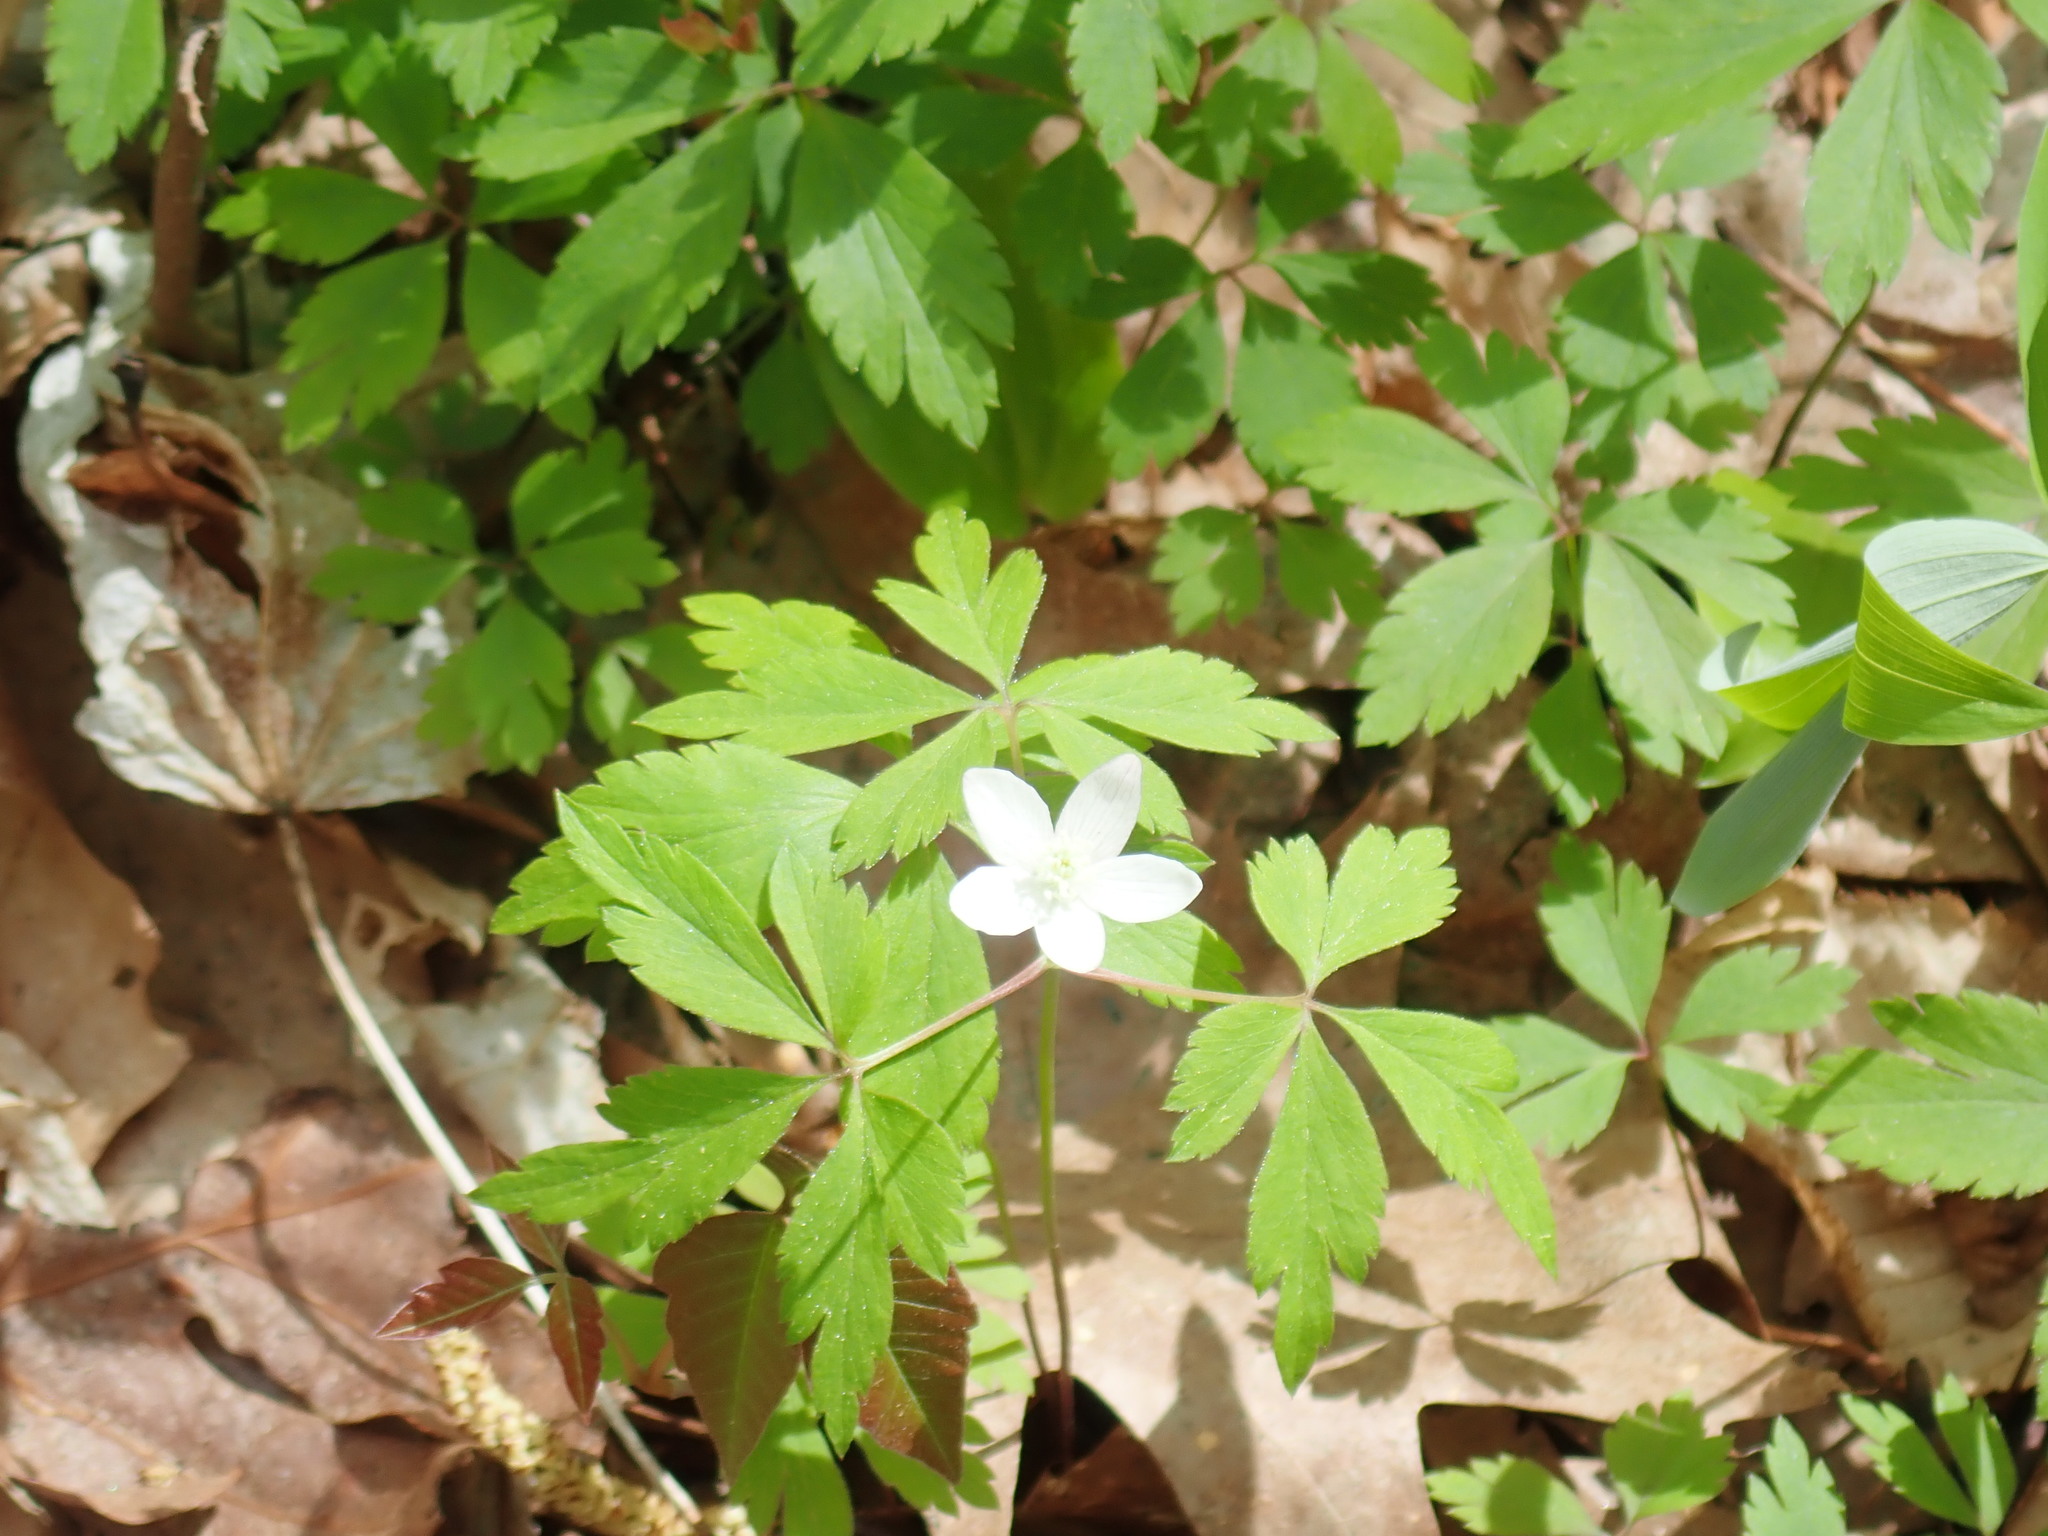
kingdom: Plantae
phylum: Tracheophyta
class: Magnoliopsida
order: Ranunculales
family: Ranunculaceae
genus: Anemone
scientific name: Anemone quinquefolia
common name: Wood anemone
